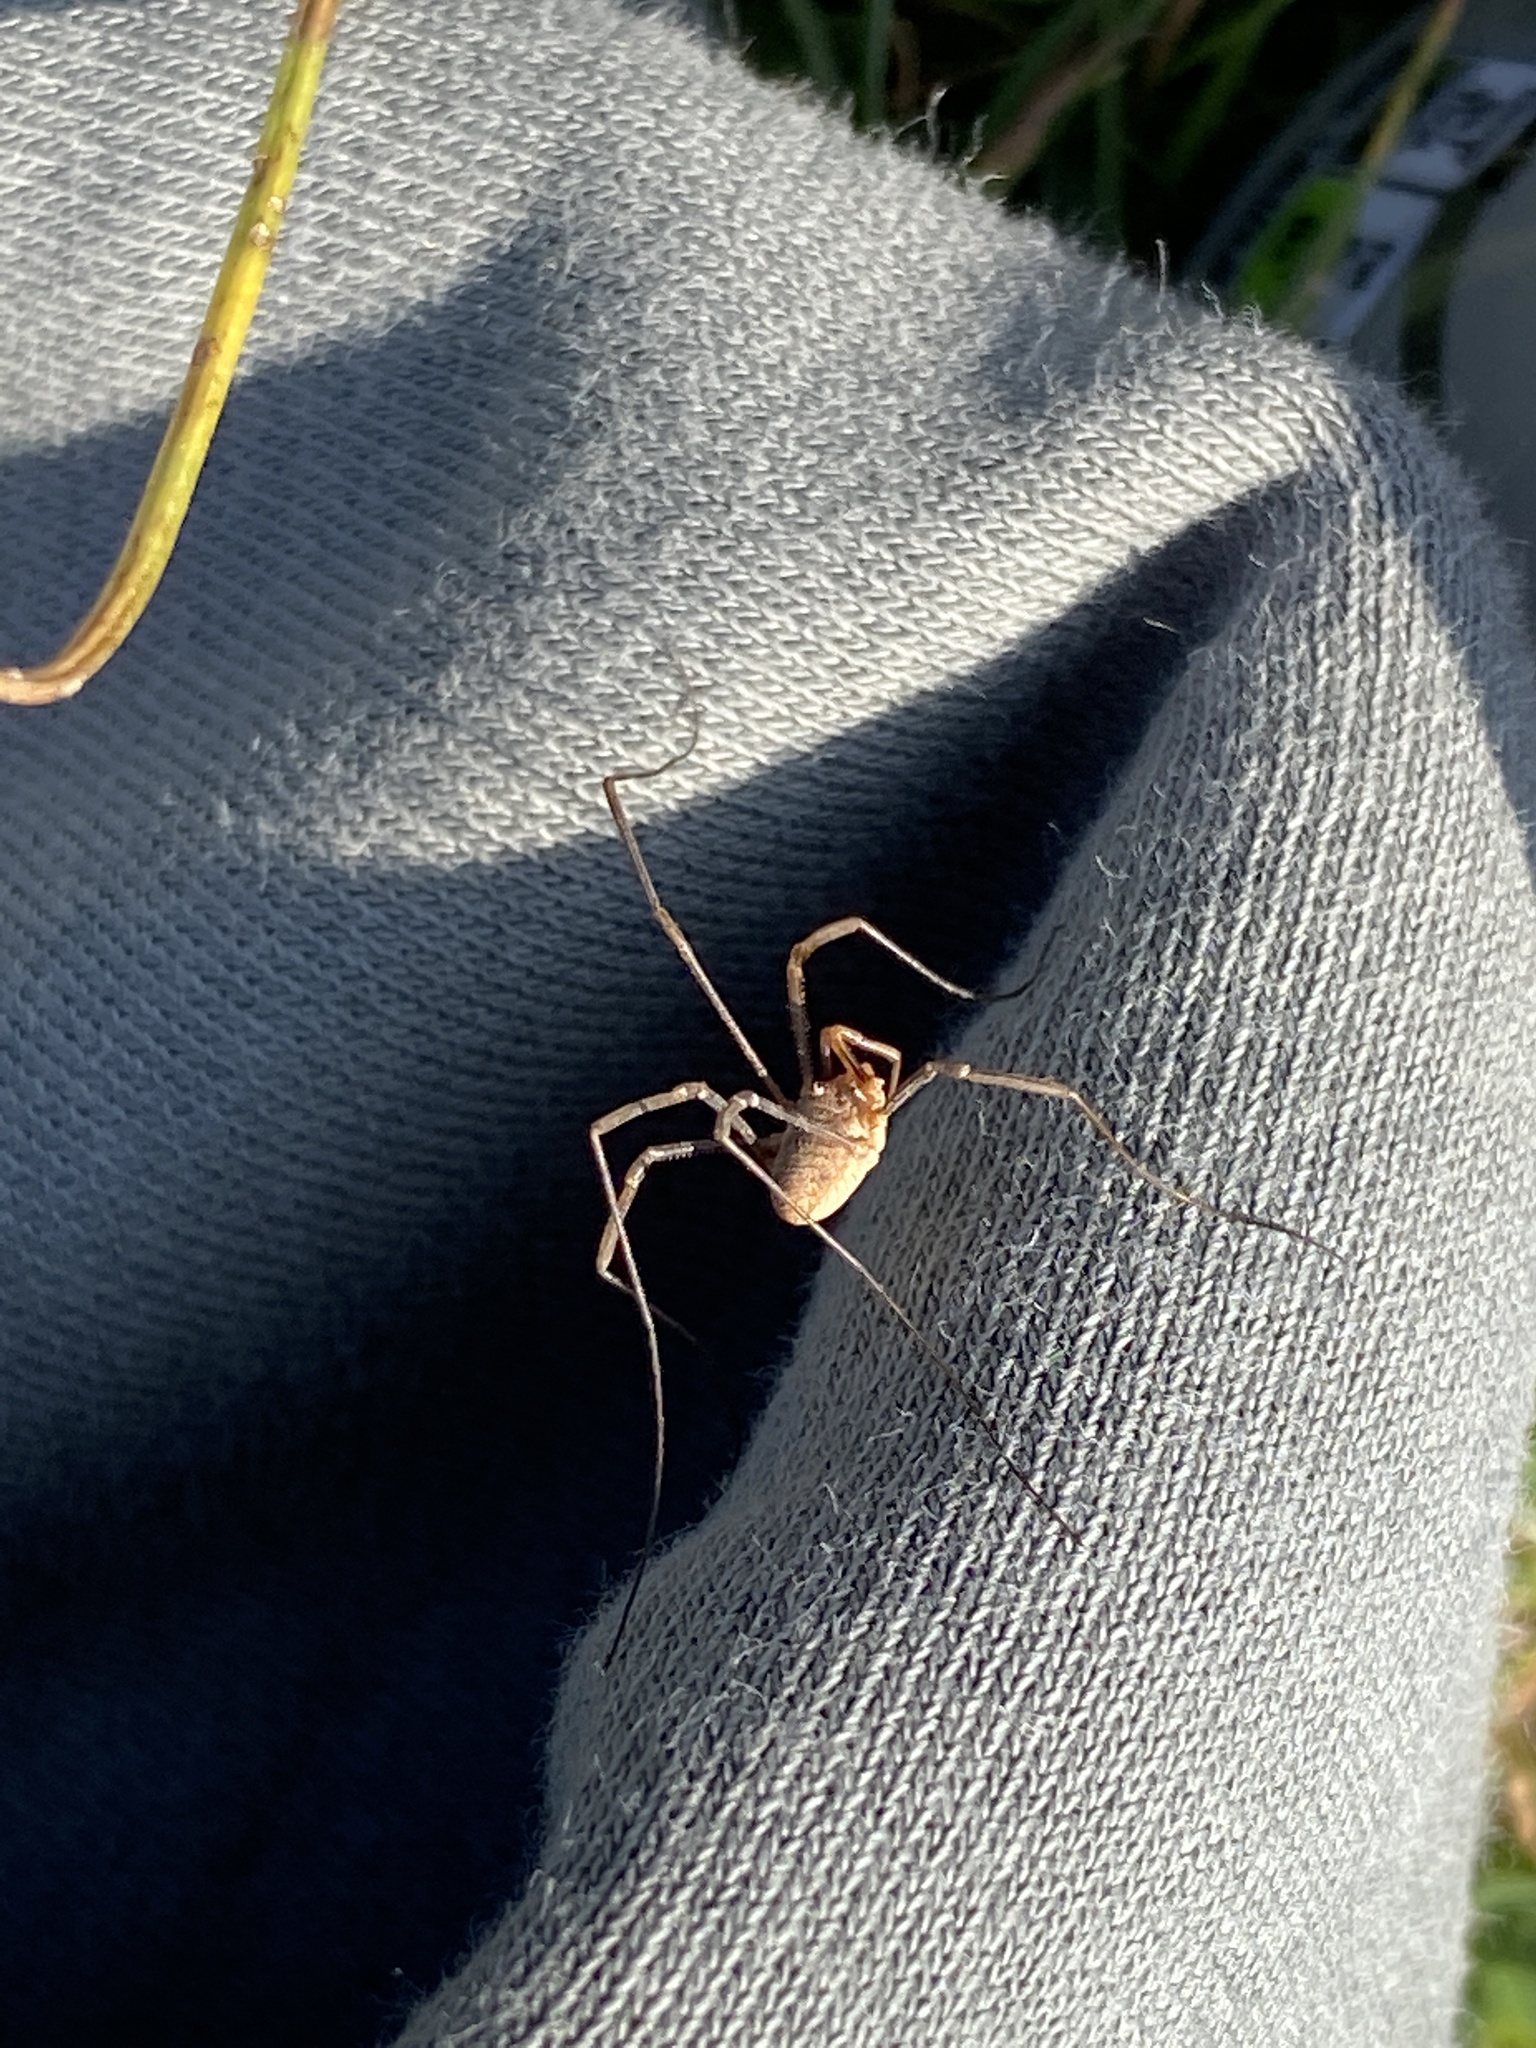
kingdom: Animalia
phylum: Arthropoda
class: Arachnida
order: Opiliones
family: Phalangiidae
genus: Phalangium
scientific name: Phalangium opilio
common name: Daddy longleg
